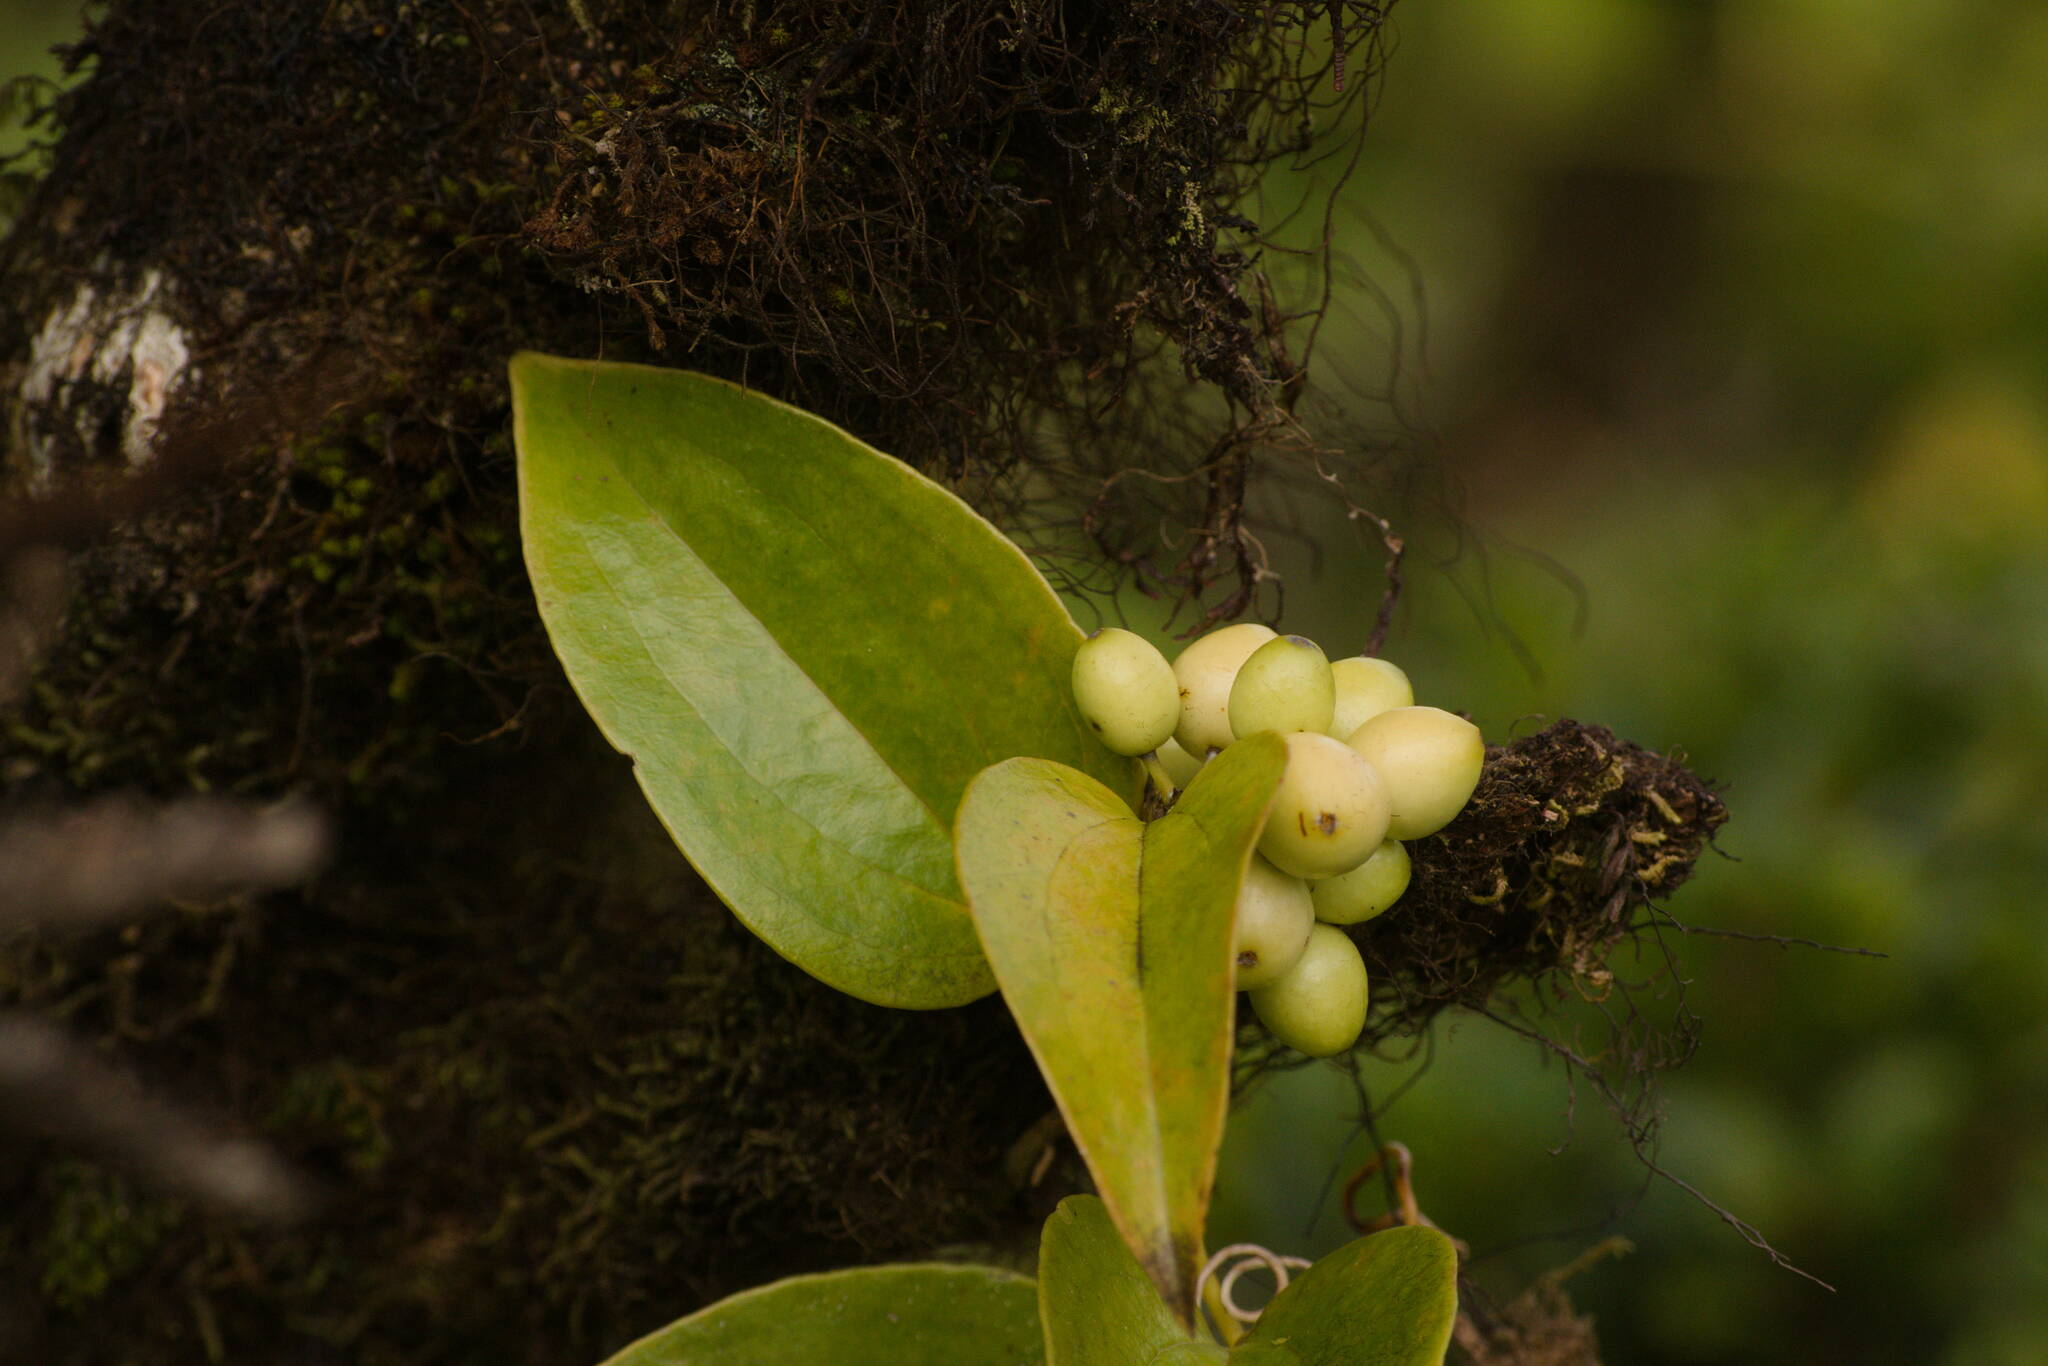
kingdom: Plantae
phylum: Tracheophyta
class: Liliopsida
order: Liliales
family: Smilacaceae
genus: Smilax
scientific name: Smilax melastomifolia
